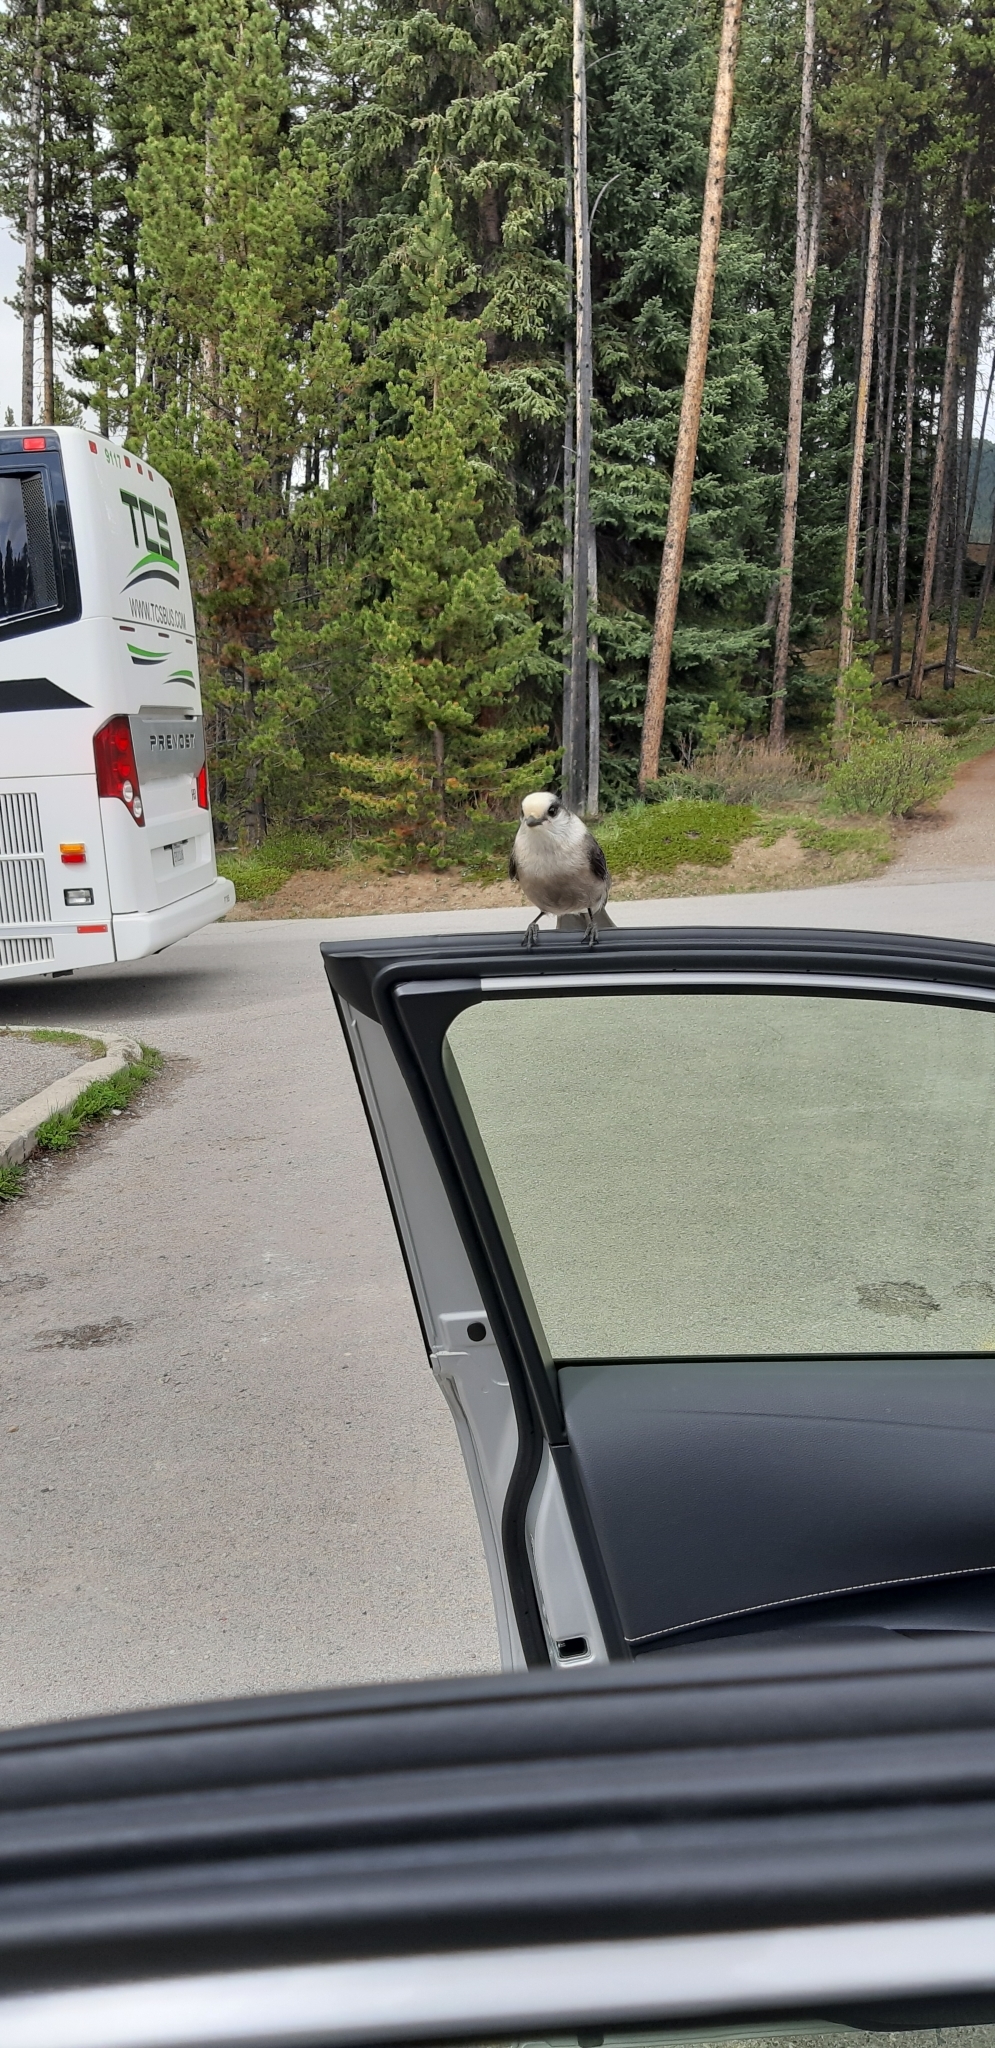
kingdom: Animalia
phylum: Chordata
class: Aves
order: Passeriformes
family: Corvidae
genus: Perisoreus
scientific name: Perisoreus canadensis
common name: Gray jay
